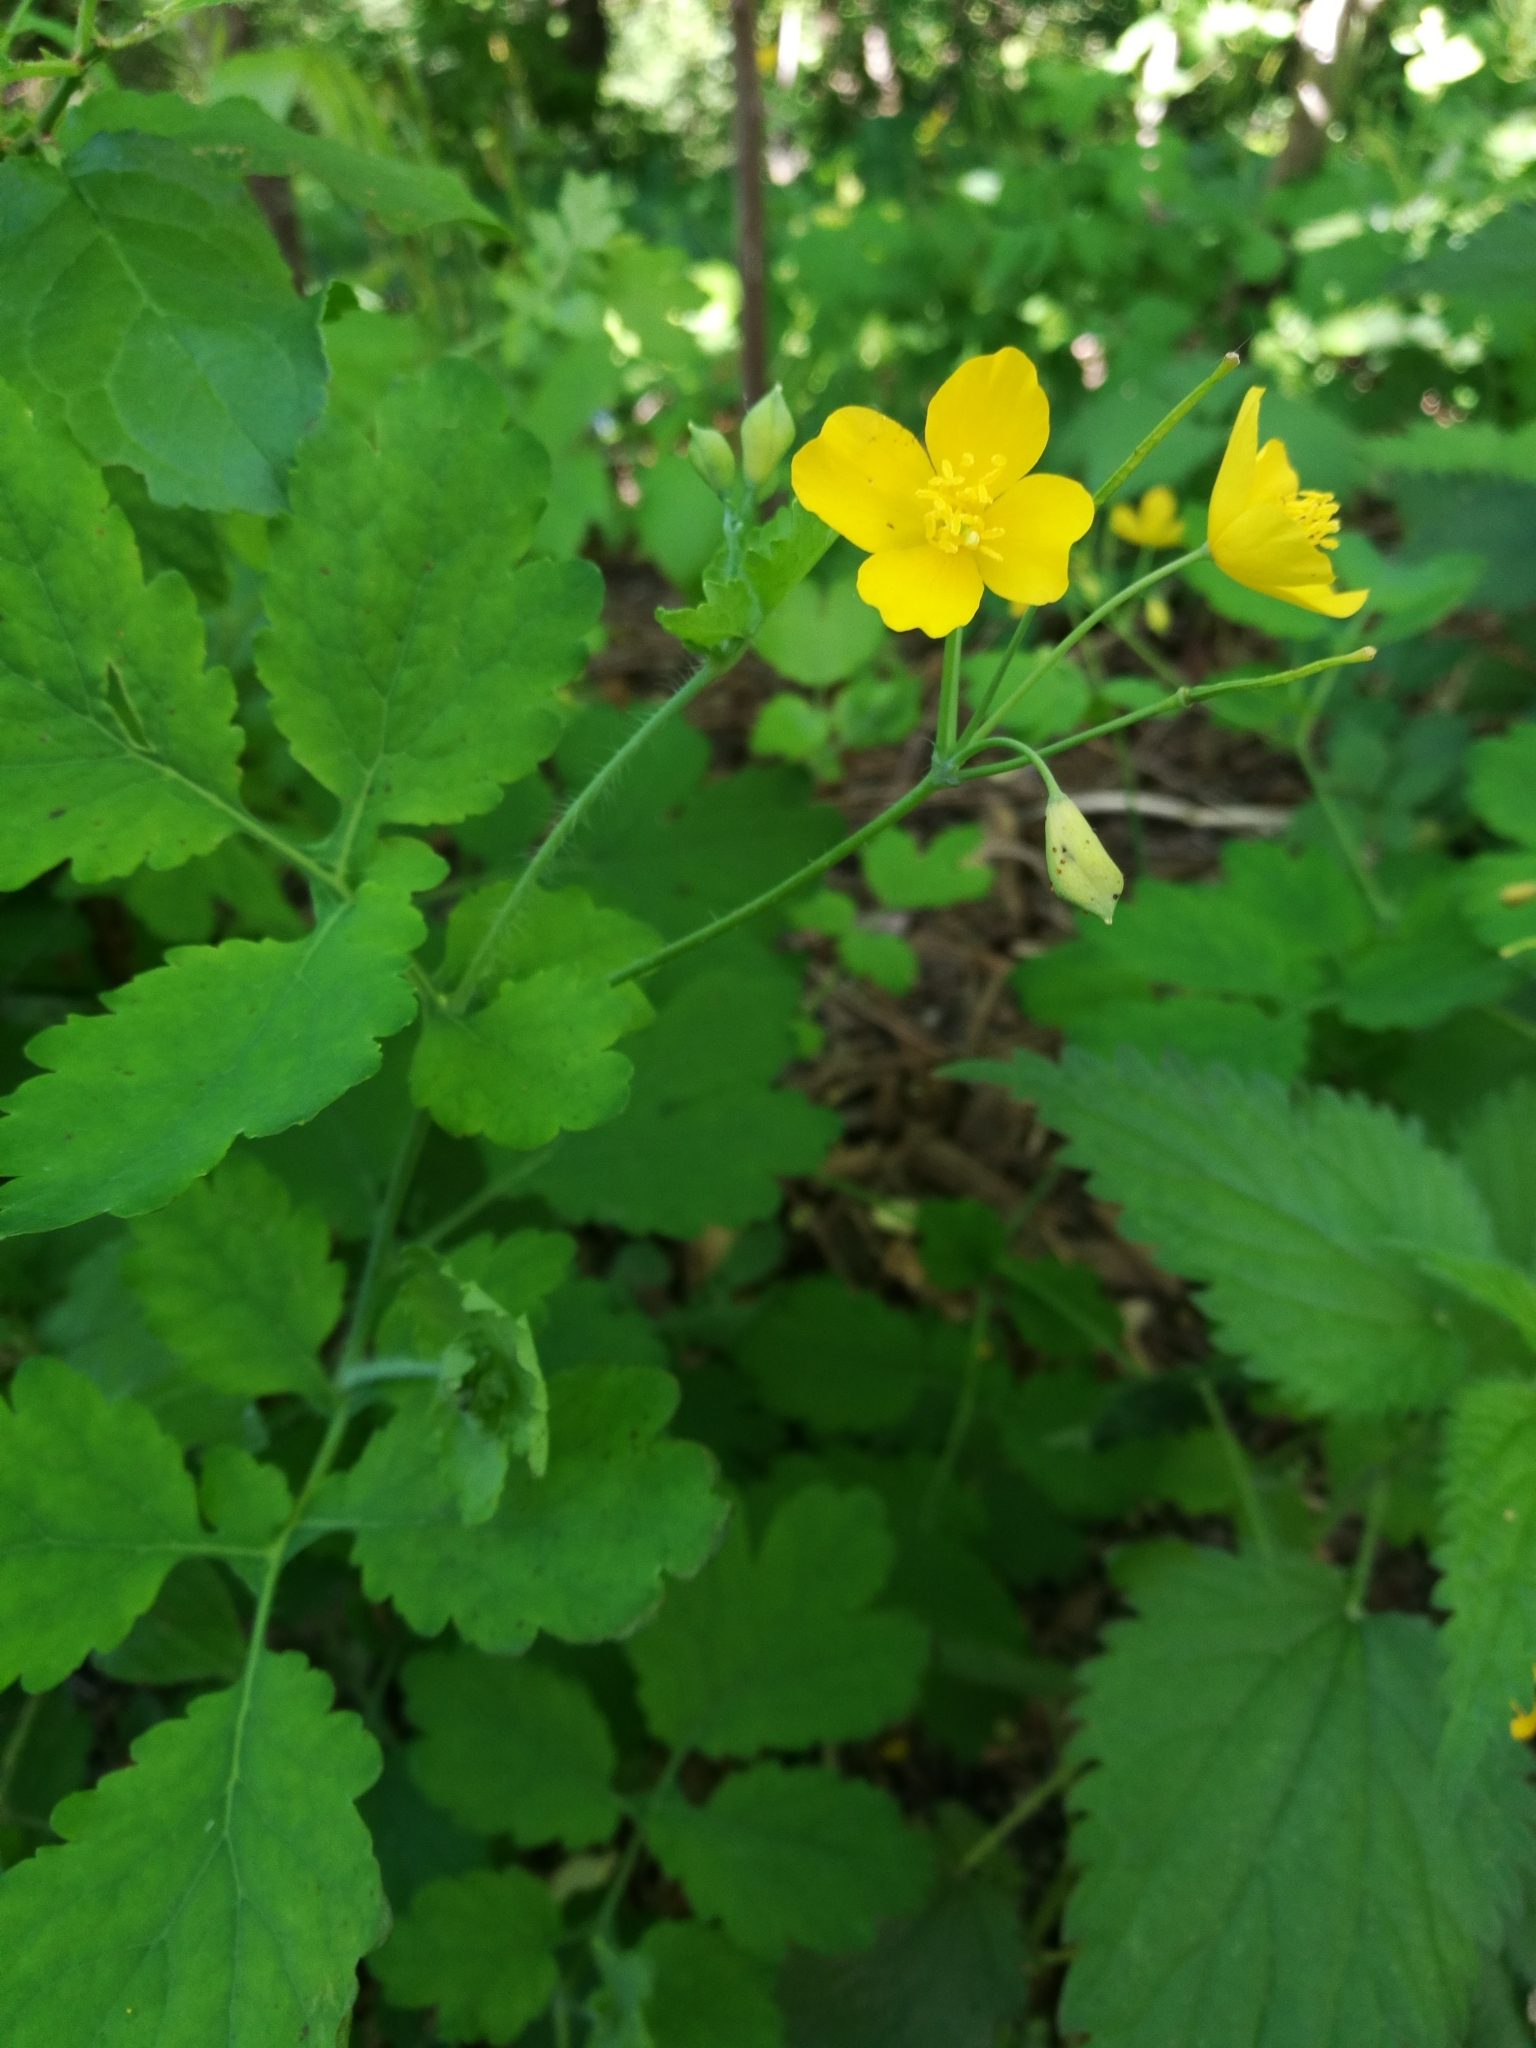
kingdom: Plantae
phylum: Tracheophyta
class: Magnoliopsida
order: Ranunculales
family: Papaveraceae
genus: Chelidonium
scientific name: Chelidonium majus
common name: Greater celandine
